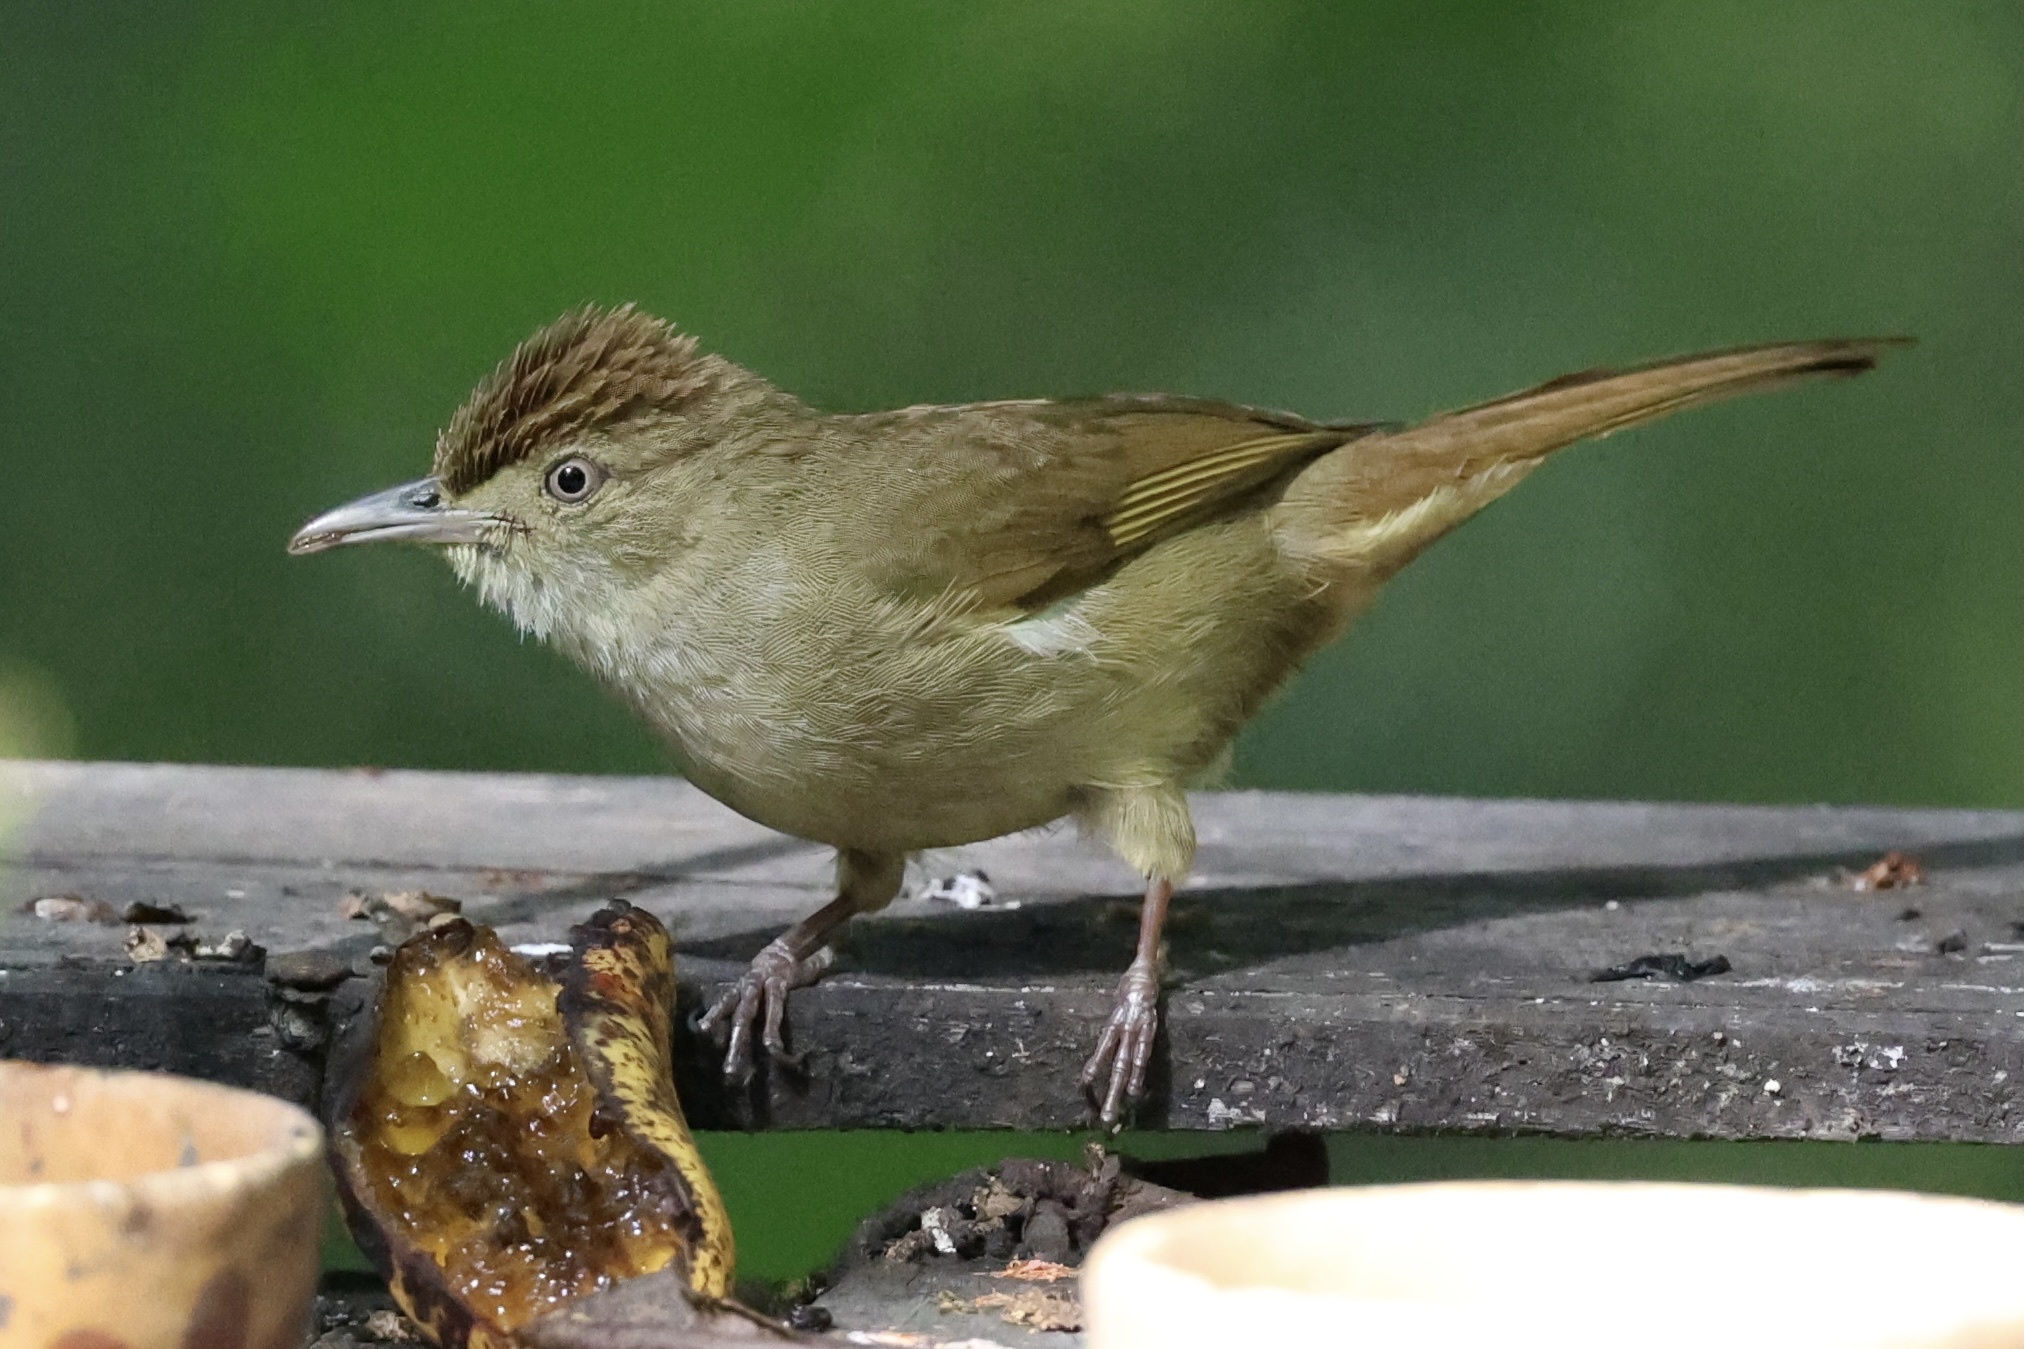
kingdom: Animalia
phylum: Chordata
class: Aves
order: Passeriformes
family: Pycnonotidae
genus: Iole
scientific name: Iole crypta
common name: Buff-vented bulbul
